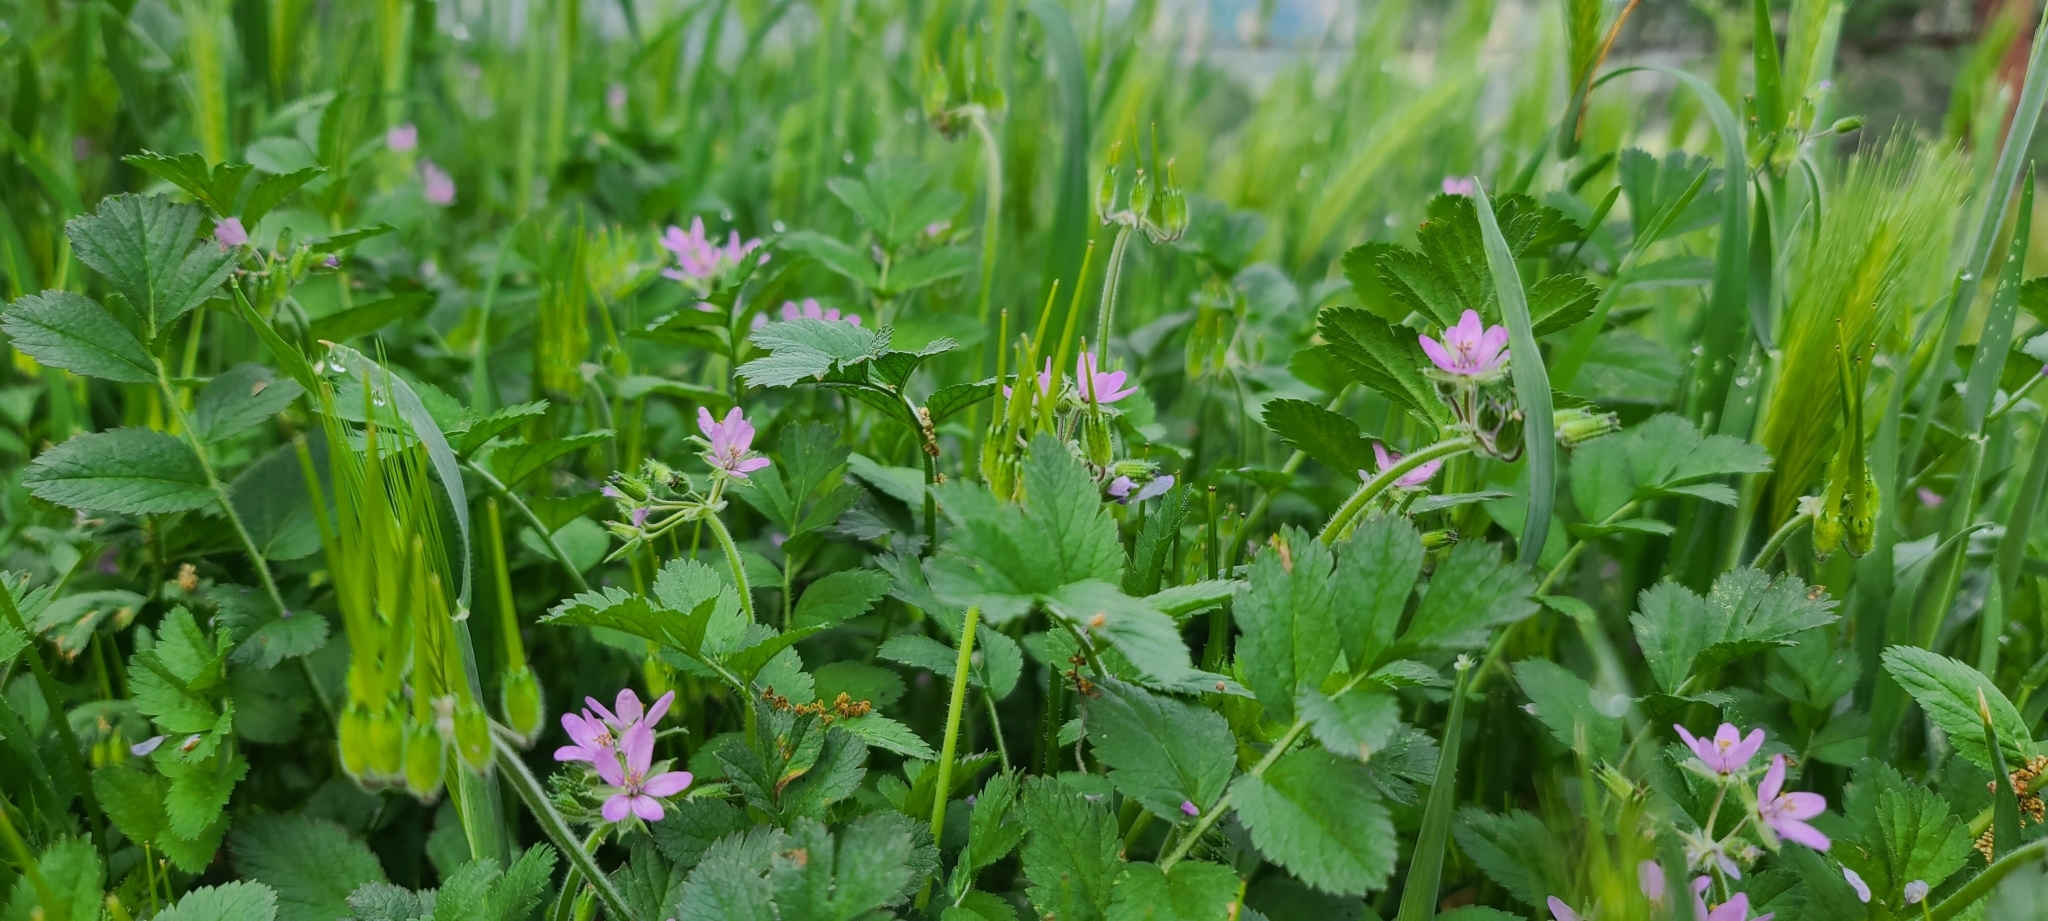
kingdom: Plantae
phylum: Tracheophyta
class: Magnoliopsida
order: Geraniales
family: Geraniaceae
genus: Erodium
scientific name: Erodium moschatum
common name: Musk stork's-bill
